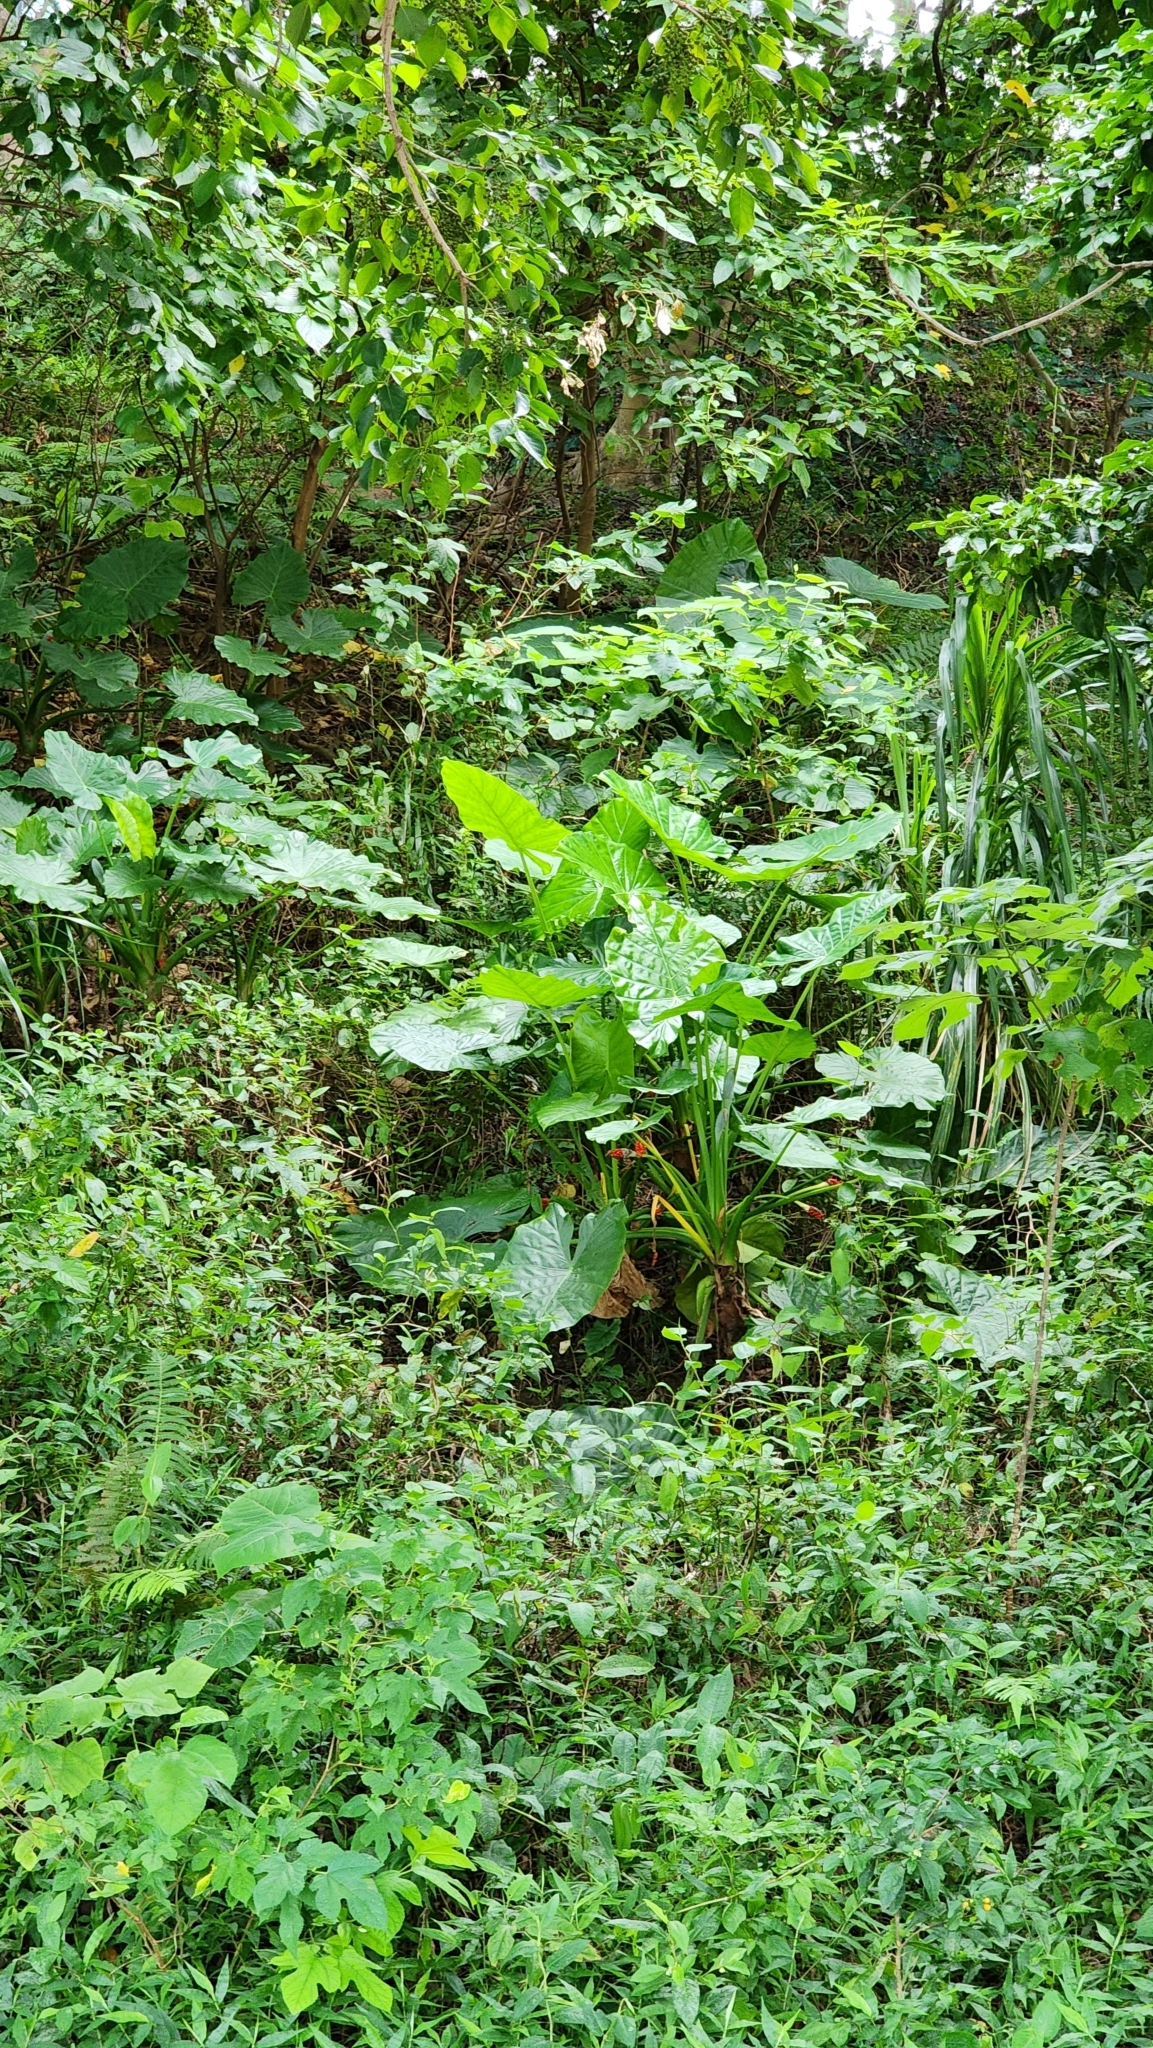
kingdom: Plantae
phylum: Tracheophyta
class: Liliopsida
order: Alismatales
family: Araceae
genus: Alocasia
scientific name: Alocasia odora
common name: Asian taro
